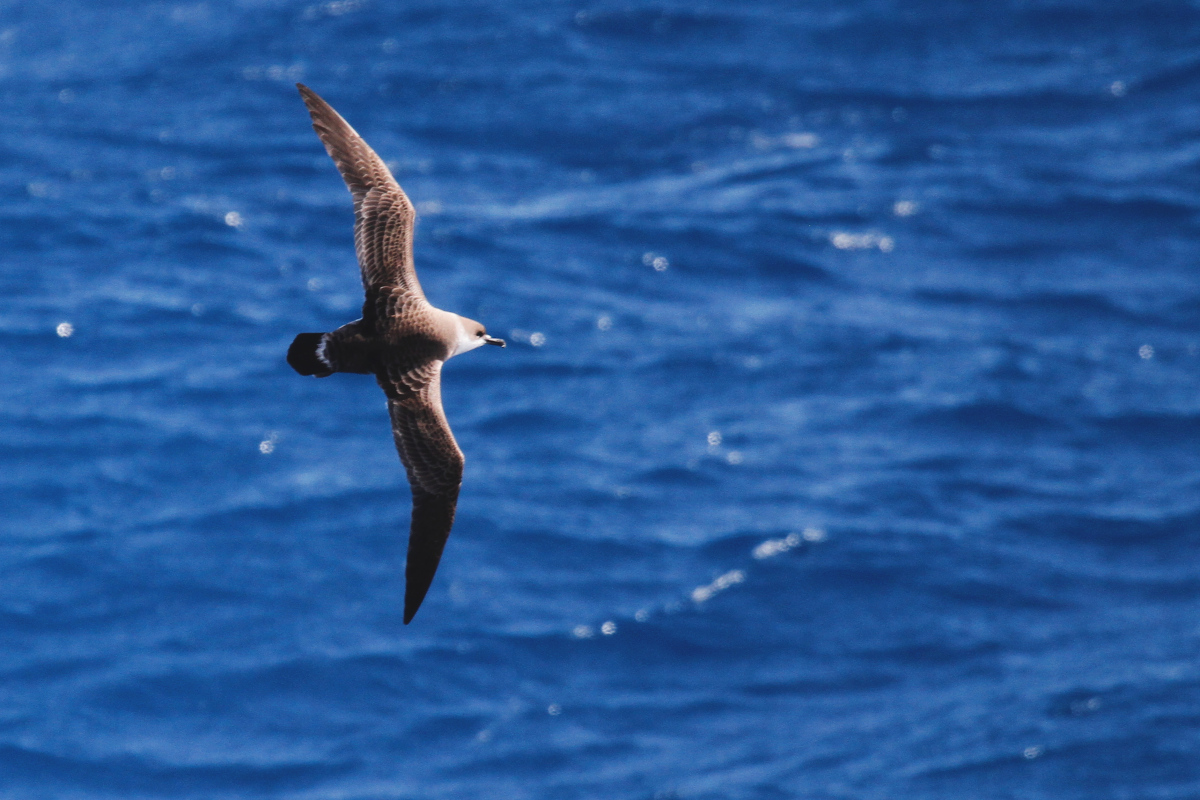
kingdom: Animalia
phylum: Chordata
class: Aves
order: Procellariiformes
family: Procellariidae
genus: Puffinus
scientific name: Puffinus gravis
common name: Great shearwater
